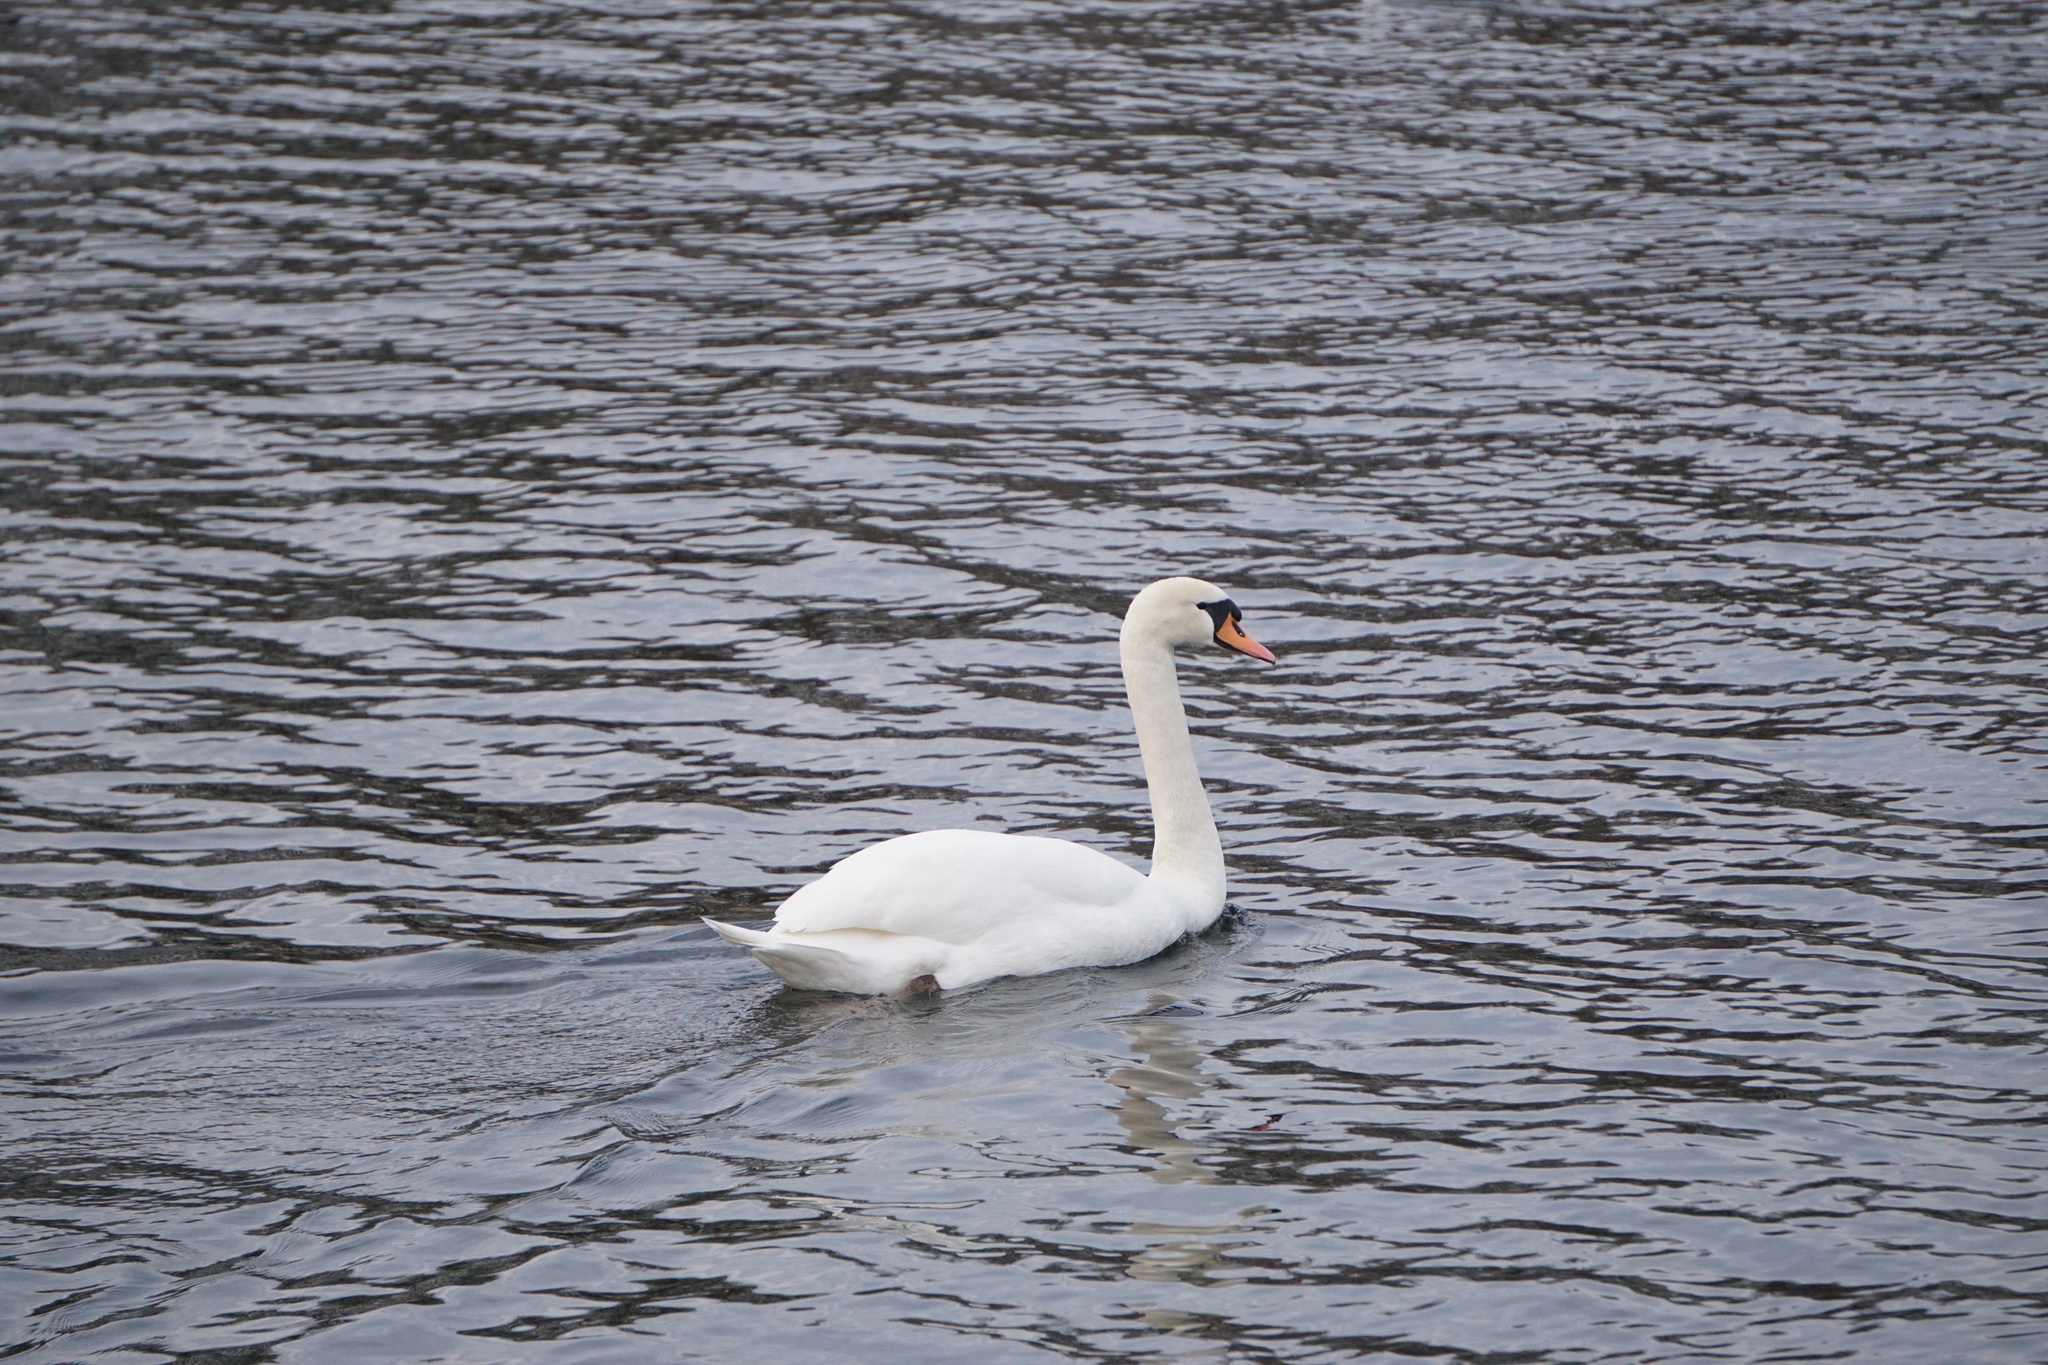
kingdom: Animalia
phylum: Chordata
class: Aves
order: Anseriformes
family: Anatidae
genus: Cygnus
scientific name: Cygnus olor
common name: Mute swan
